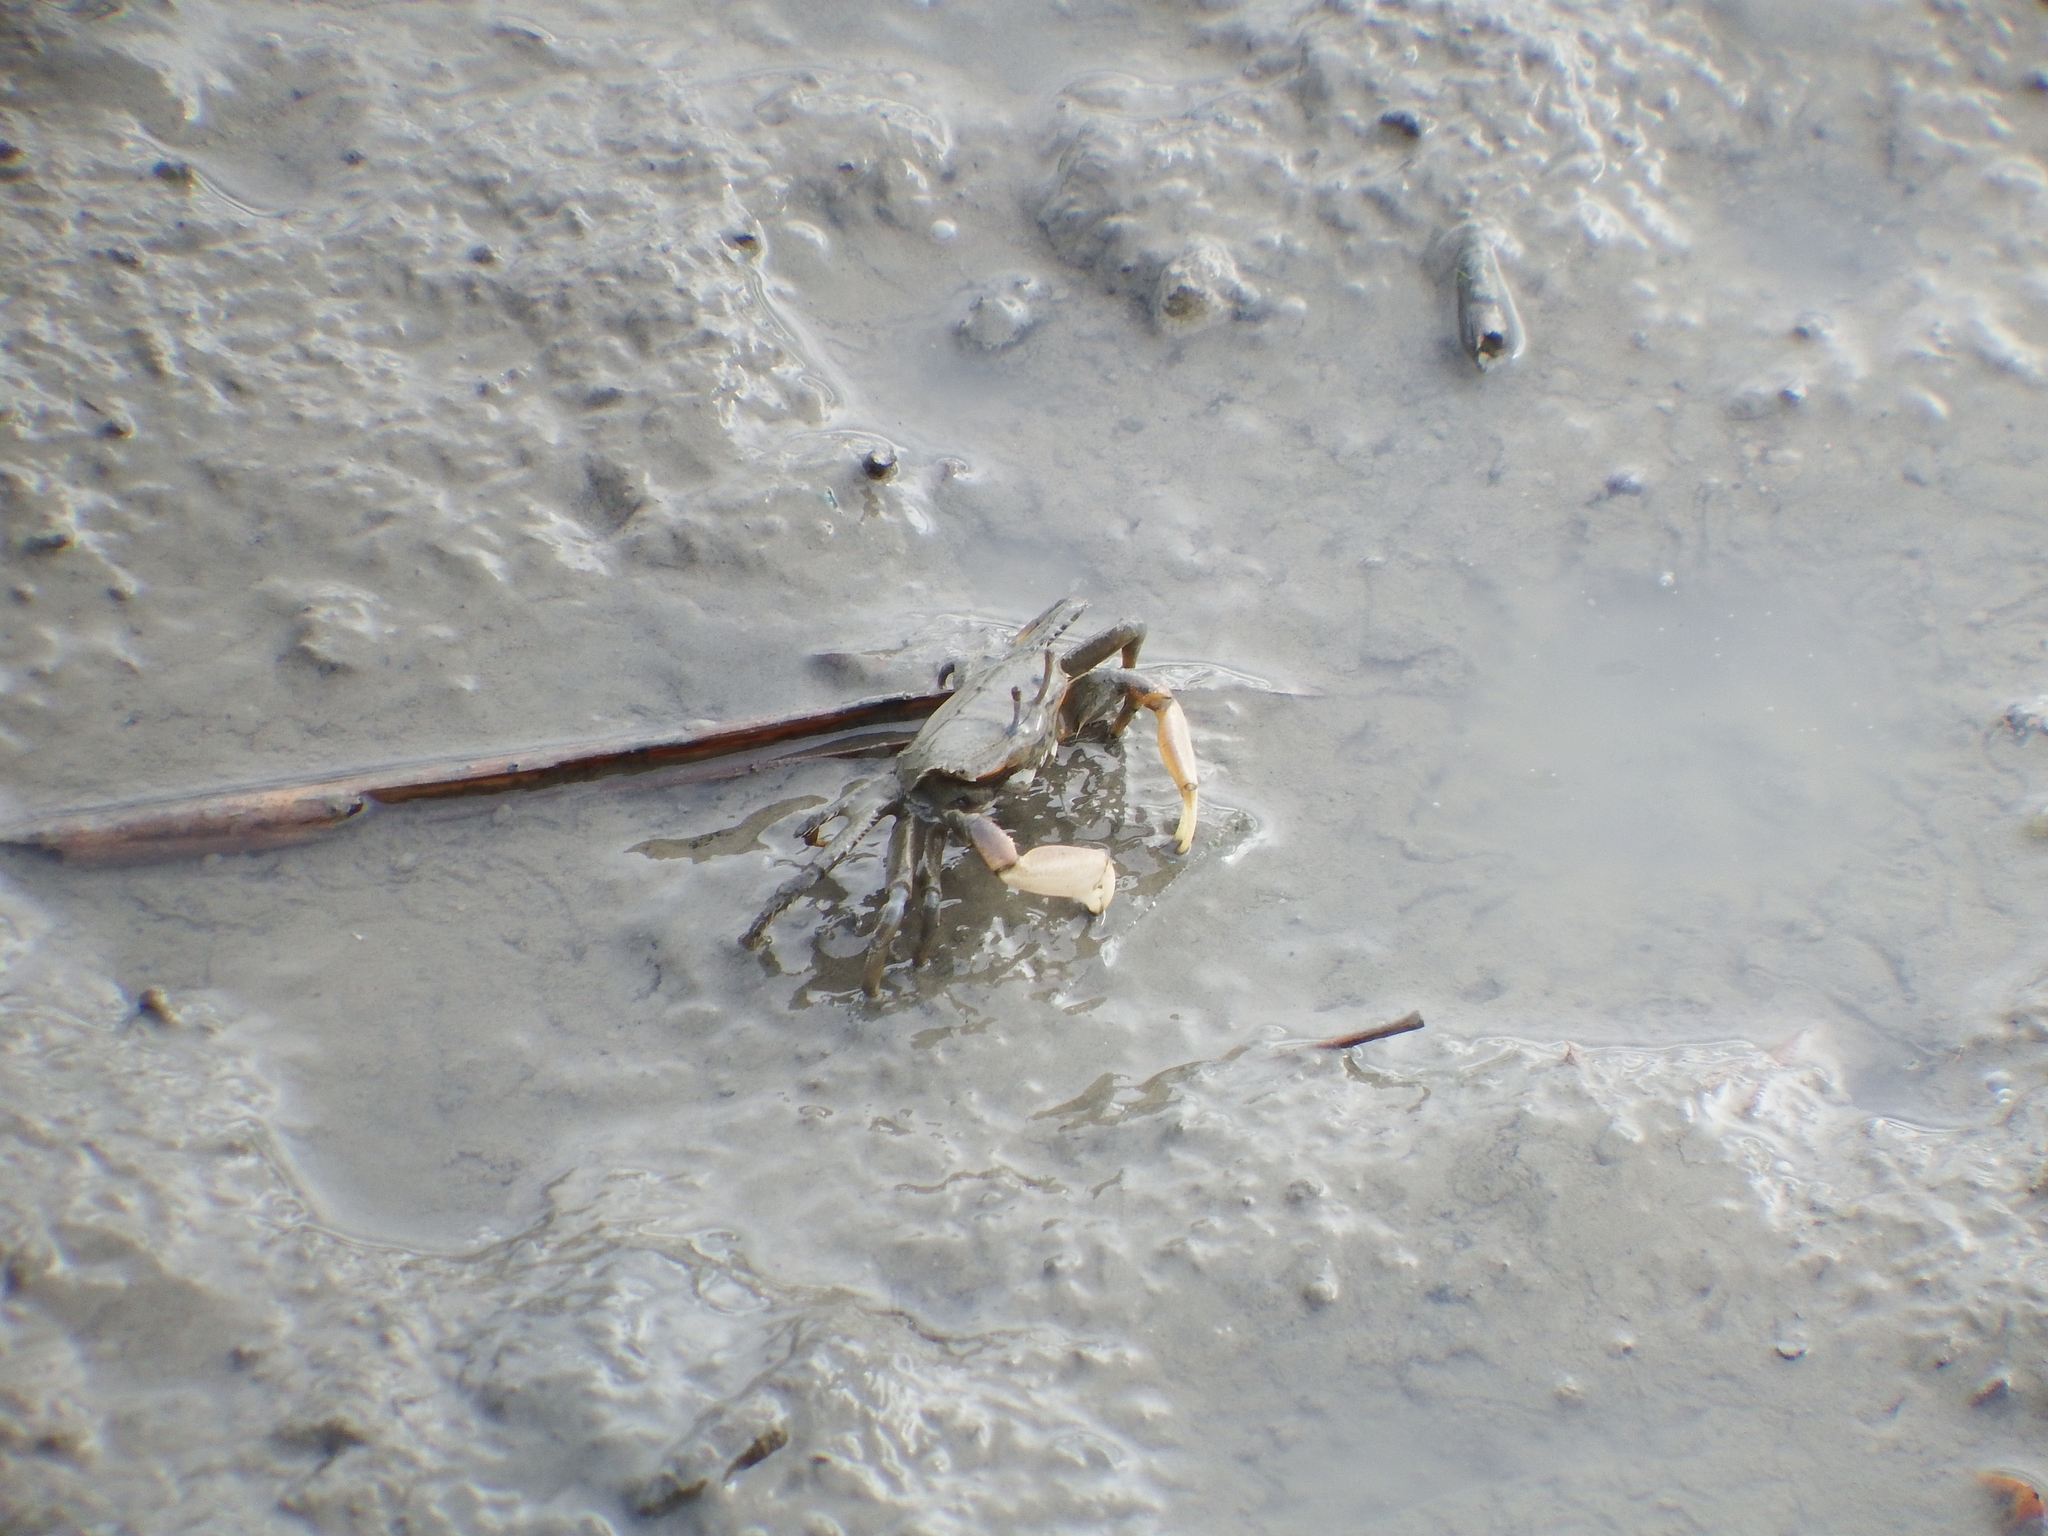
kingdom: Animalia
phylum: Arthropoda
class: Malacostraca
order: Decapoda
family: Macrophthalmidae
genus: Macrophthalmus
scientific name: Macrophthalmus banzai
